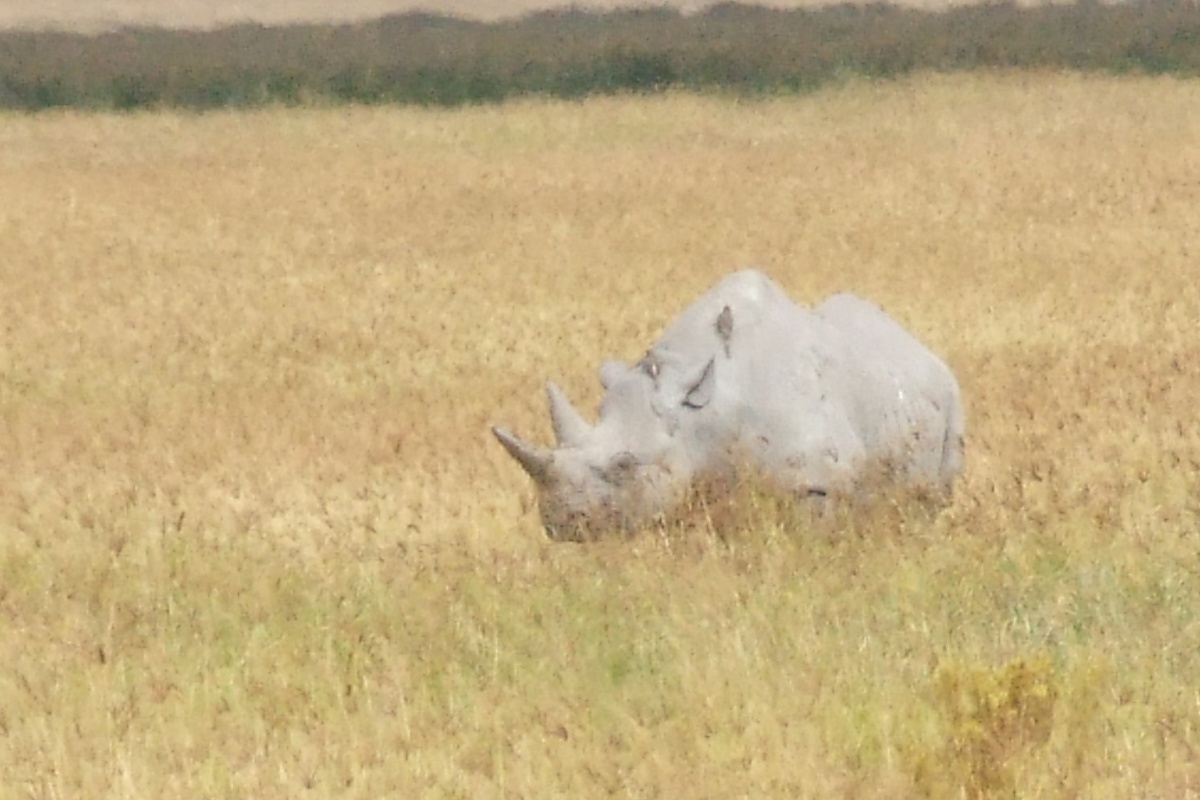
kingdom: Animalia
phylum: Chordata
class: Mammalia
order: Perissodactyla
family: Rhinocerotidae
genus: Diceros
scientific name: Diceros bicornis
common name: Black rhinoceros
